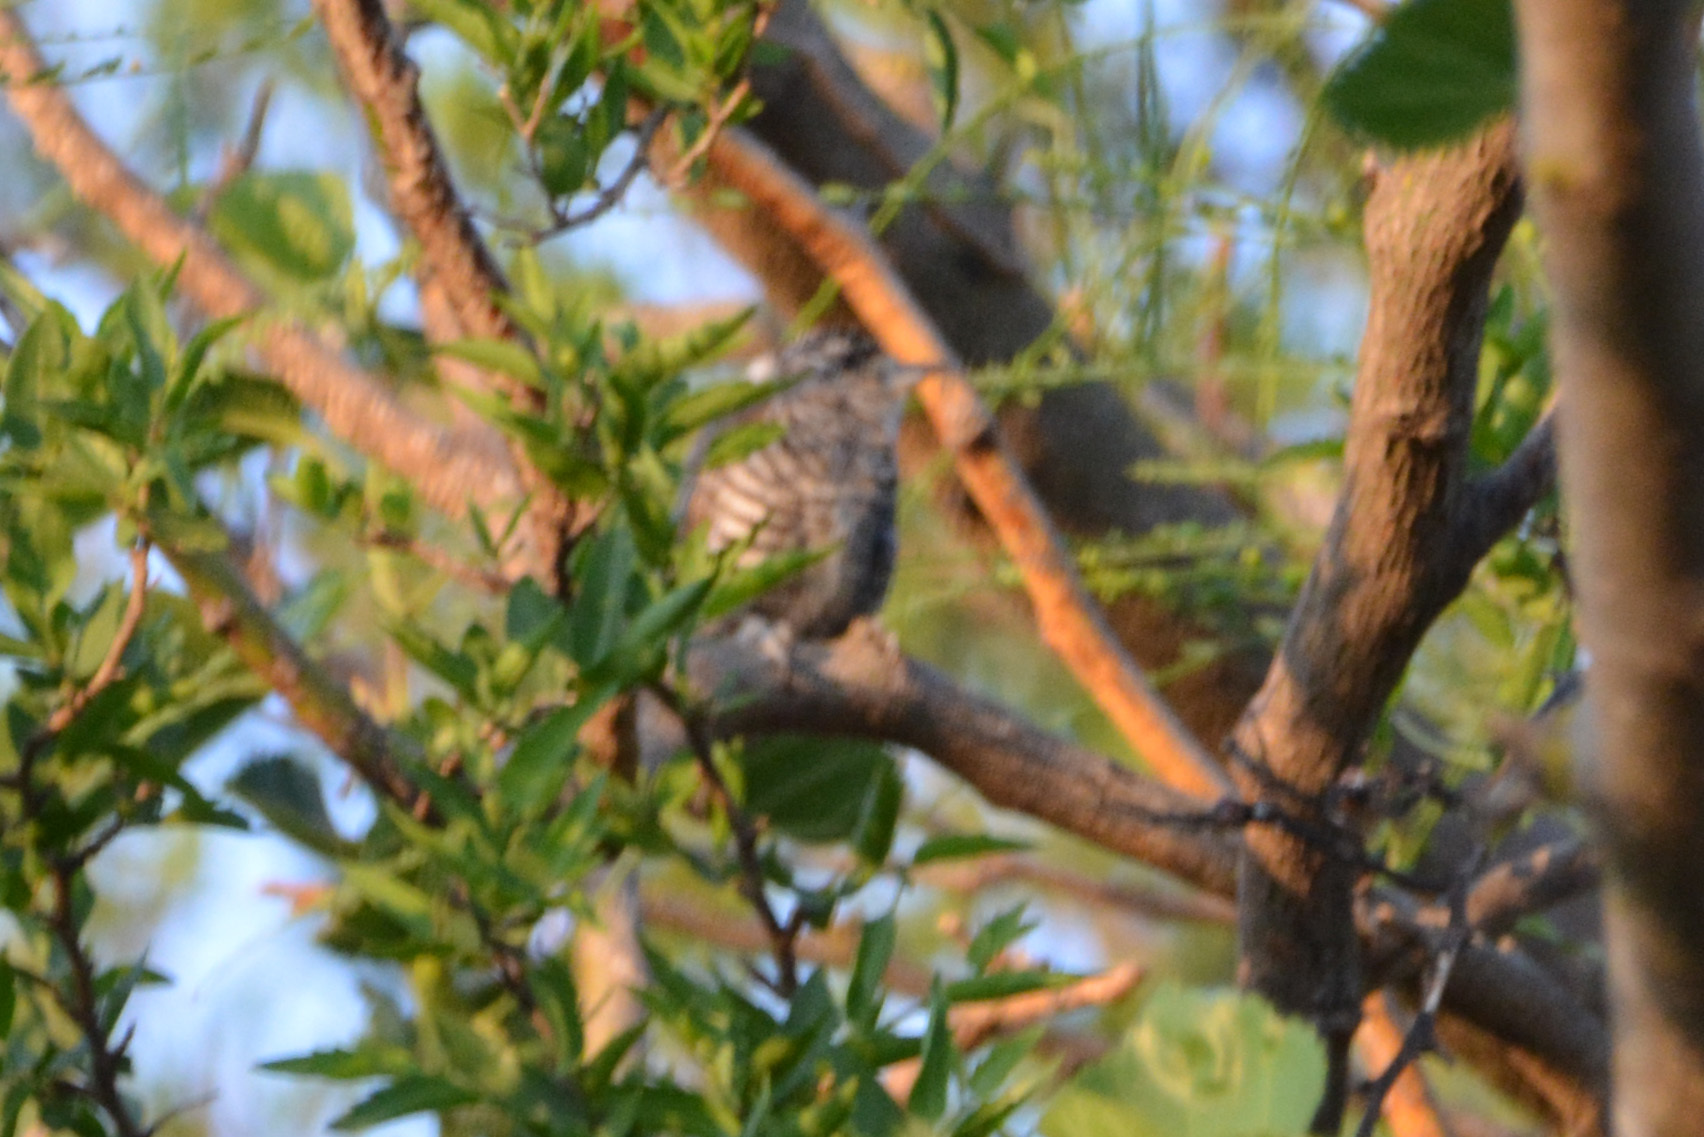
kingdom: Animalia
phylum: Chordata
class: Aves
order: Piciformes
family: Picidae
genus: Picumnus
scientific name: Picumnus cirratus
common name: White-barred piculet
